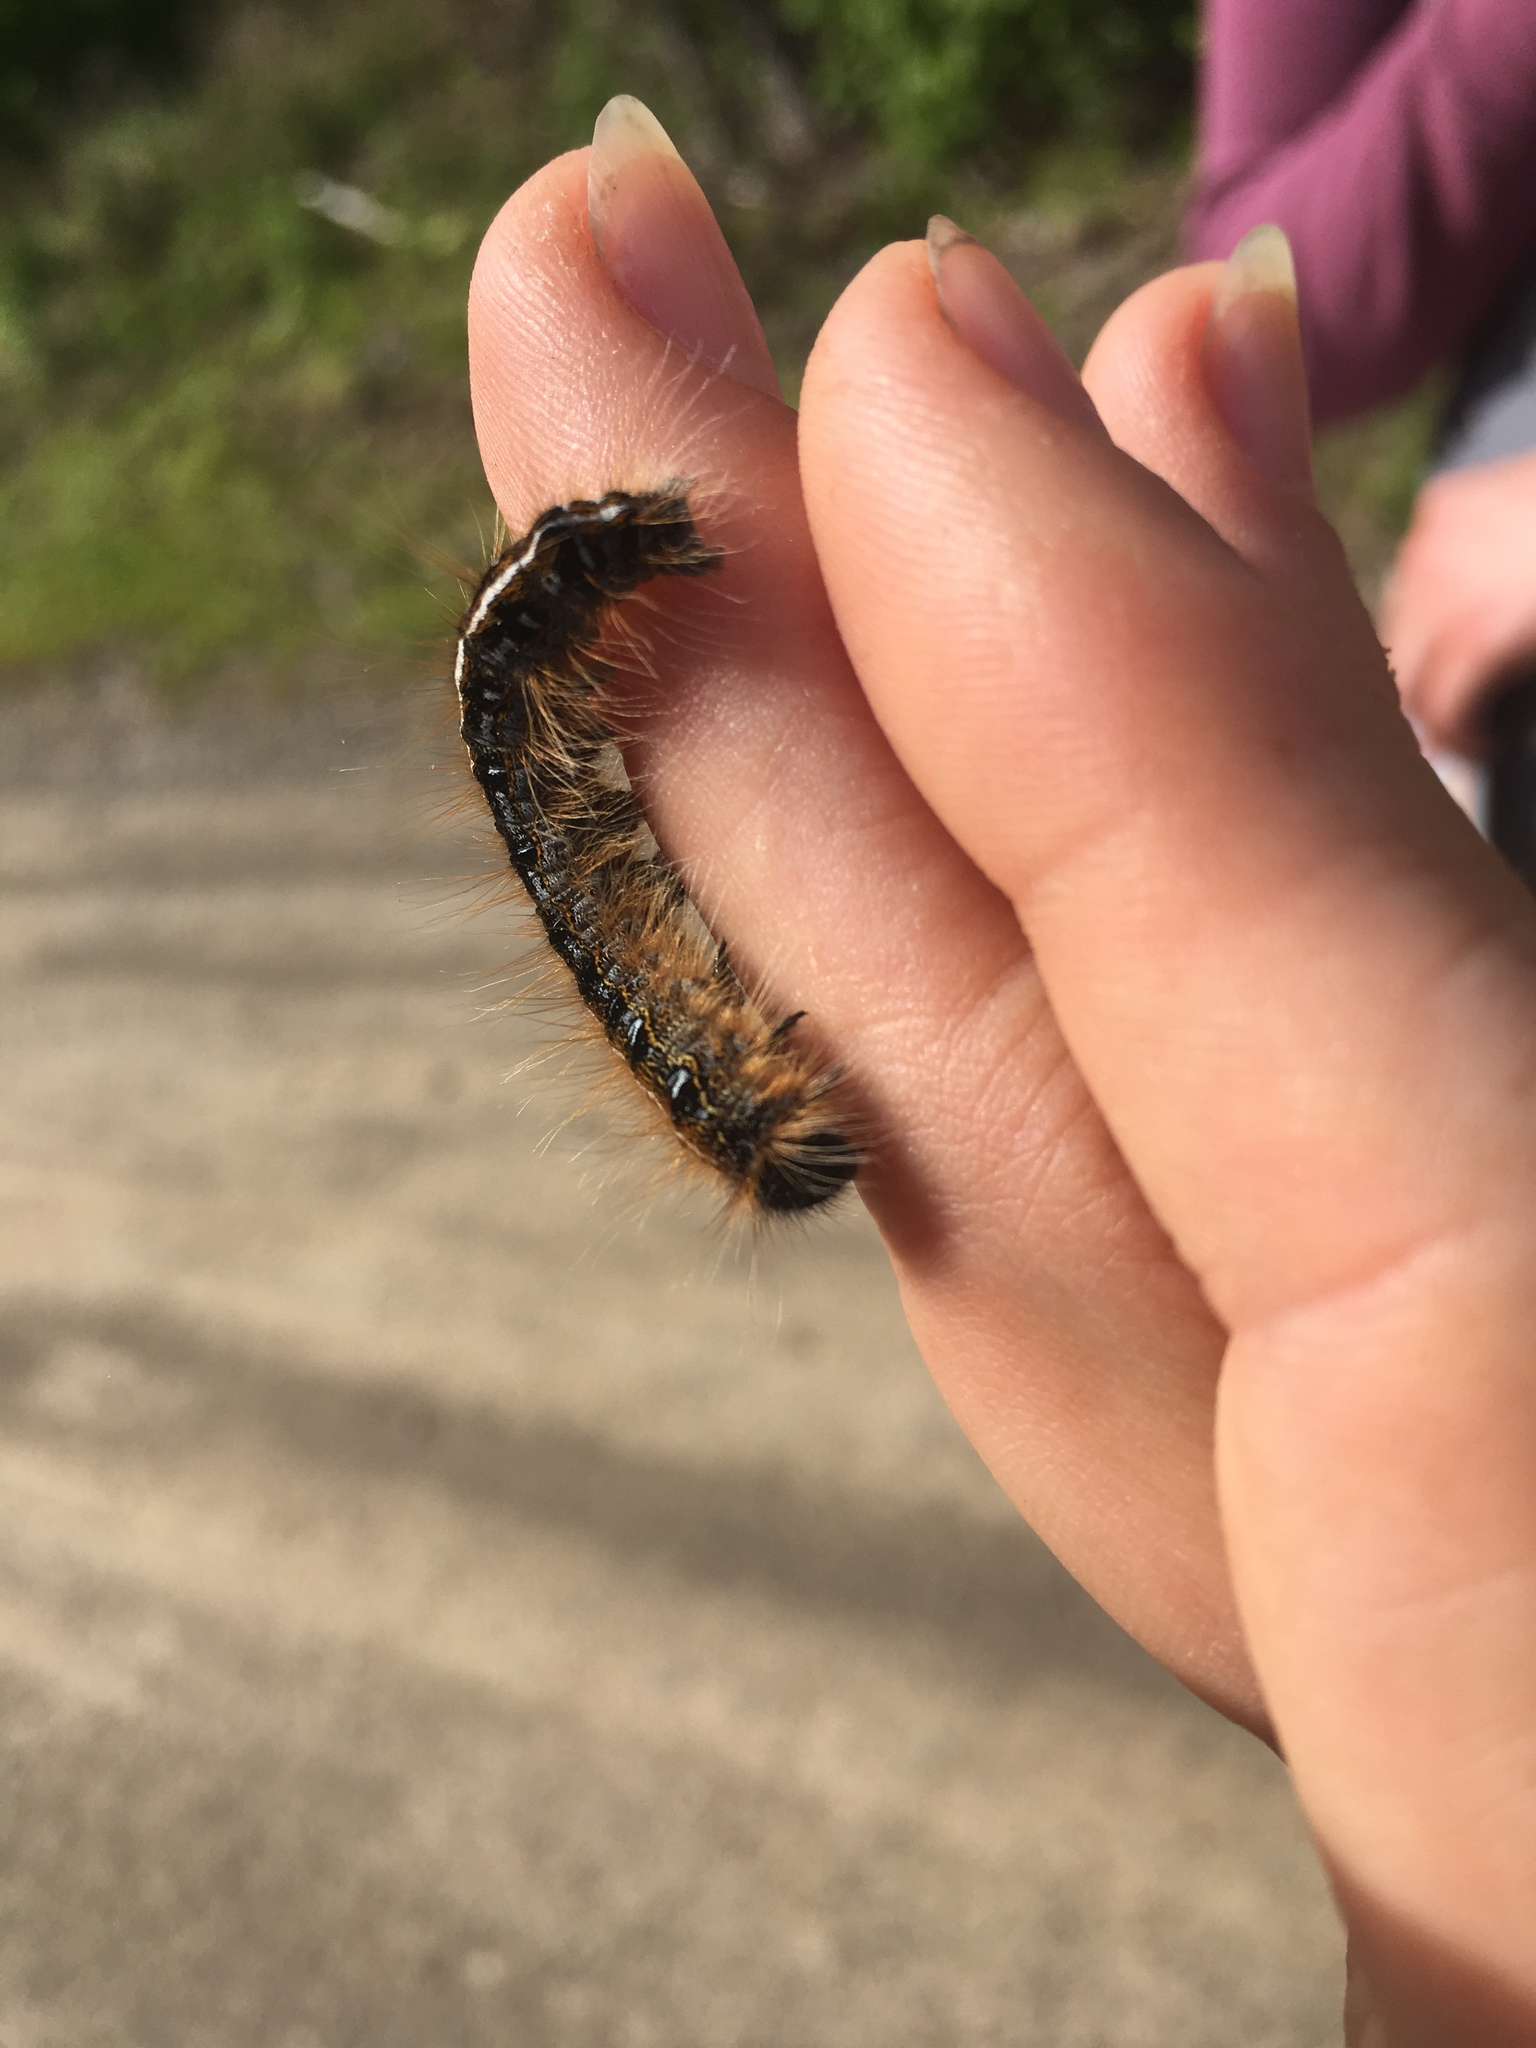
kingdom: Animalia
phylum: Arthropoda
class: Insecta
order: Lepidoptera
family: Lasiocampidae
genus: Malacosoma
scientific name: Malacosoma americana
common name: Eastern tent caterpillar moth
